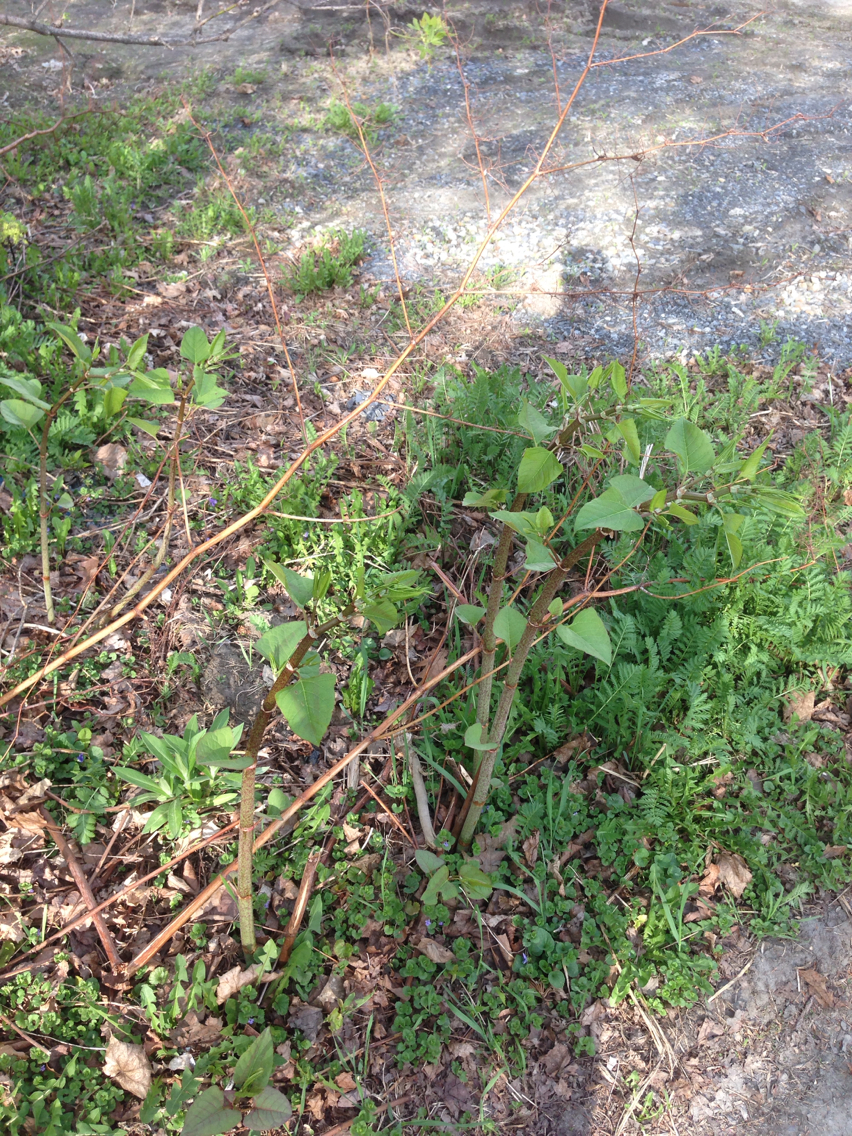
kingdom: Plantae
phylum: Tracheophyta
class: Magnoliopsida
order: Caryophyllales
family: Polygonaceae
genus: Reynoutria
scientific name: Reynoutria japonica
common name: Japanese knotweed
